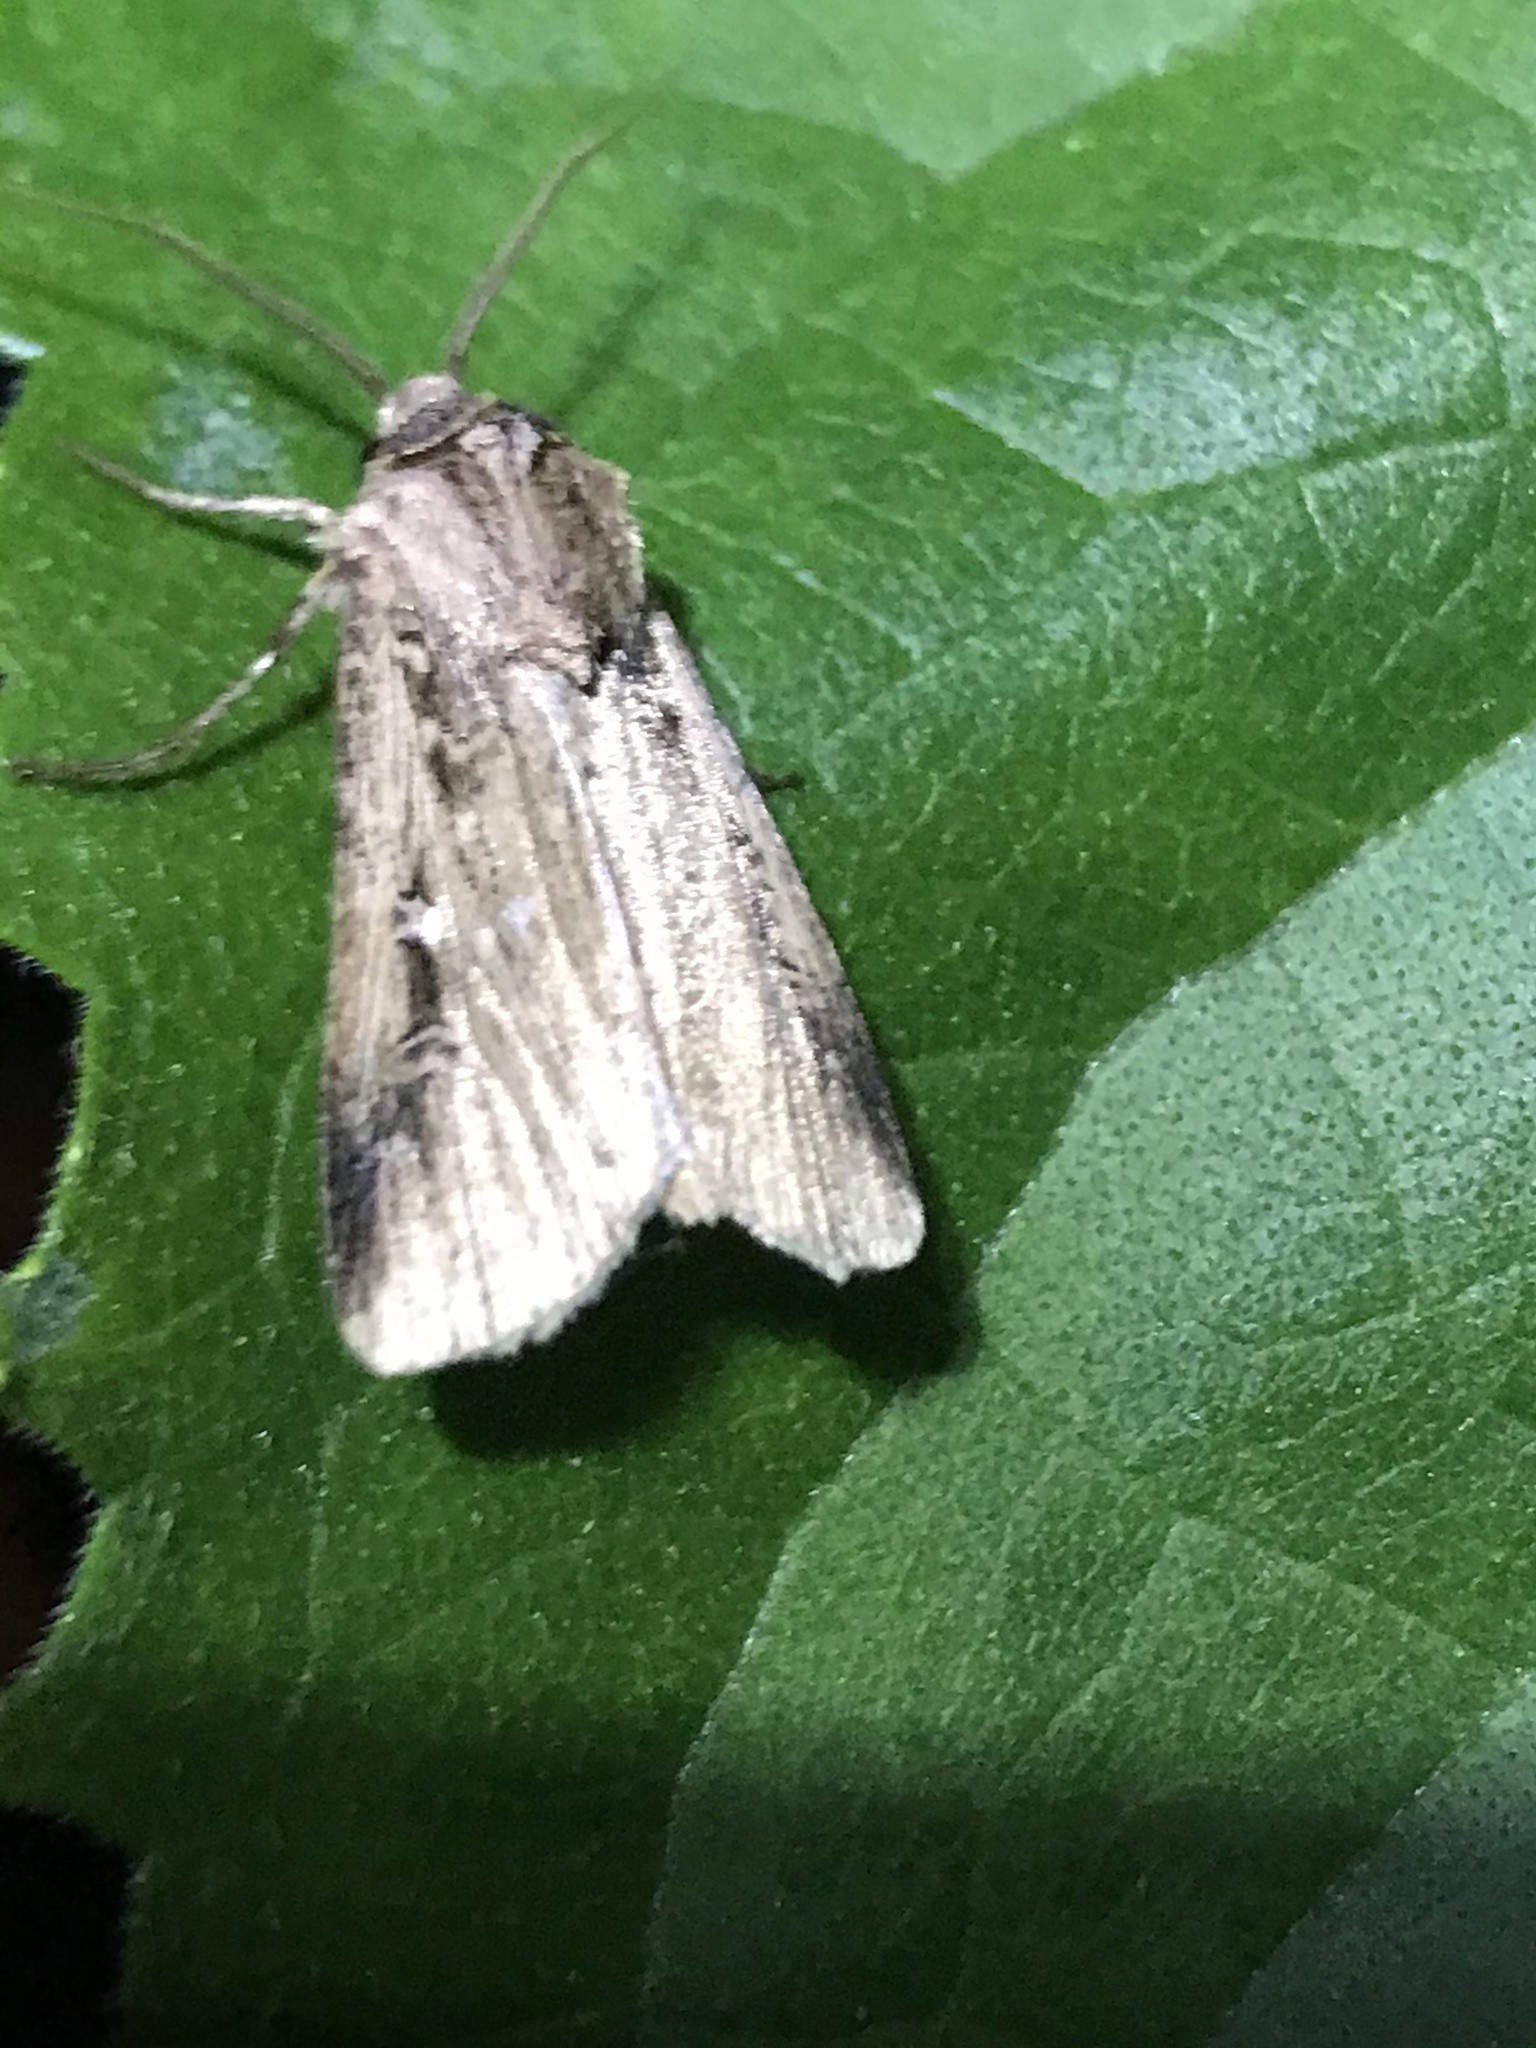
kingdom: Animalia
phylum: Arthropoda
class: Insecta
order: Lepidoptera
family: Noctuidae
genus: Feltia
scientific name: Feltia subterranea
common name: Granulate cutworm
